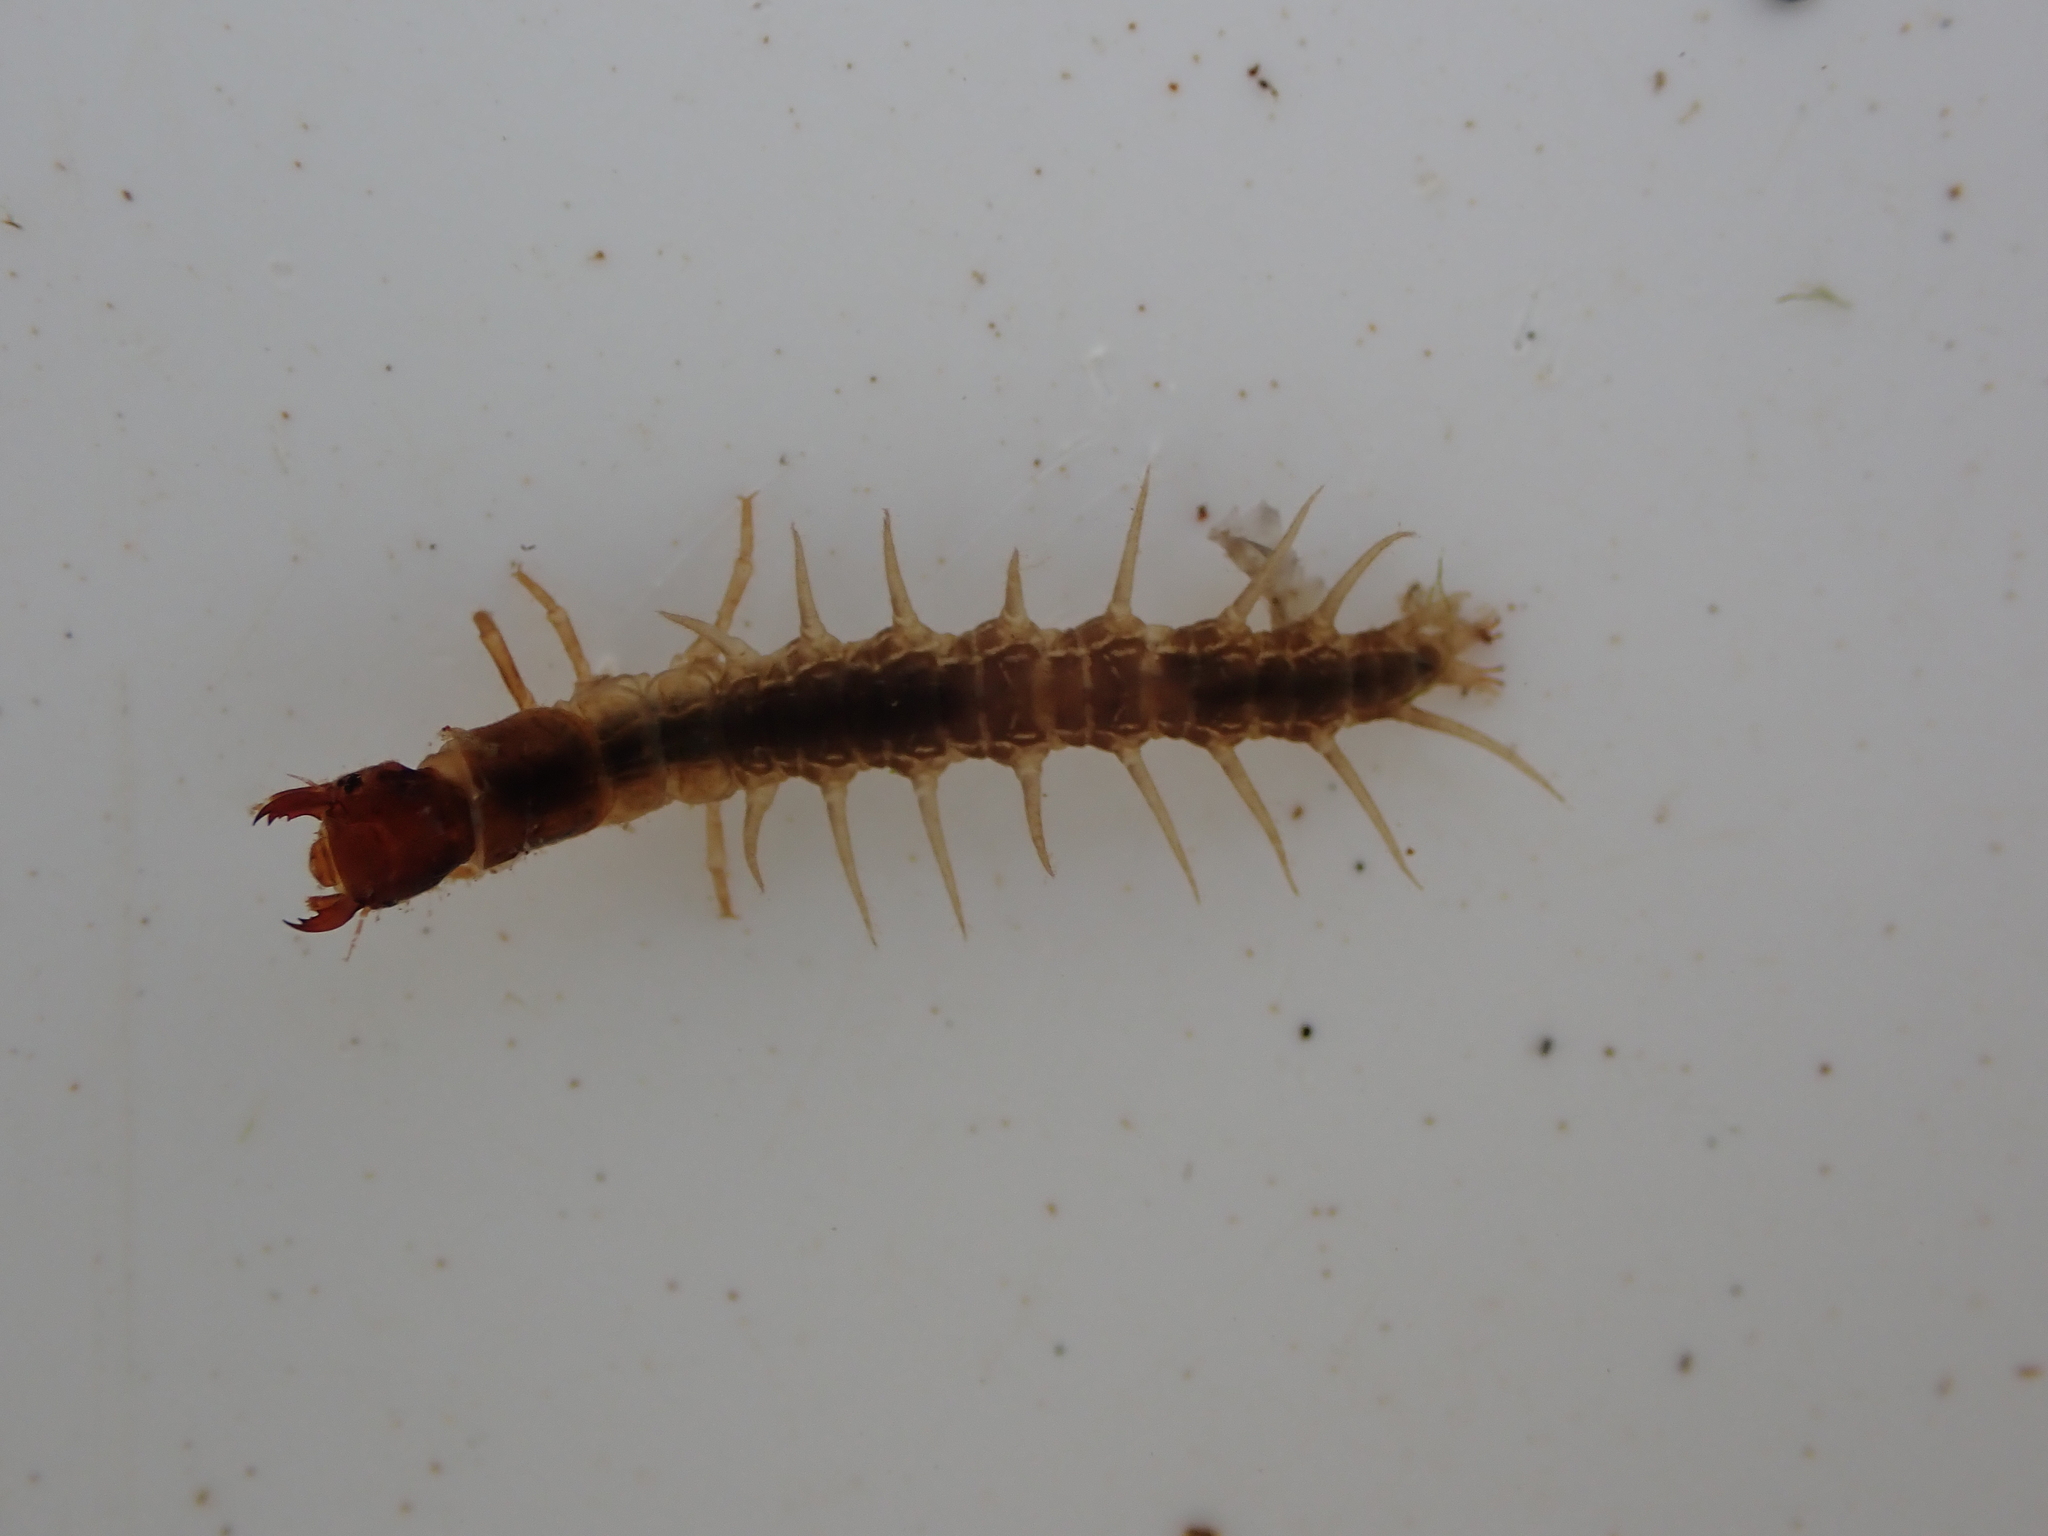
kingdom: Animalia
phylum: Arthropoda
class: Insecta
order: Megaloptera
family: Corydalidae
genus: Archichauliodes
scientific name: Archichauliodes diversus
